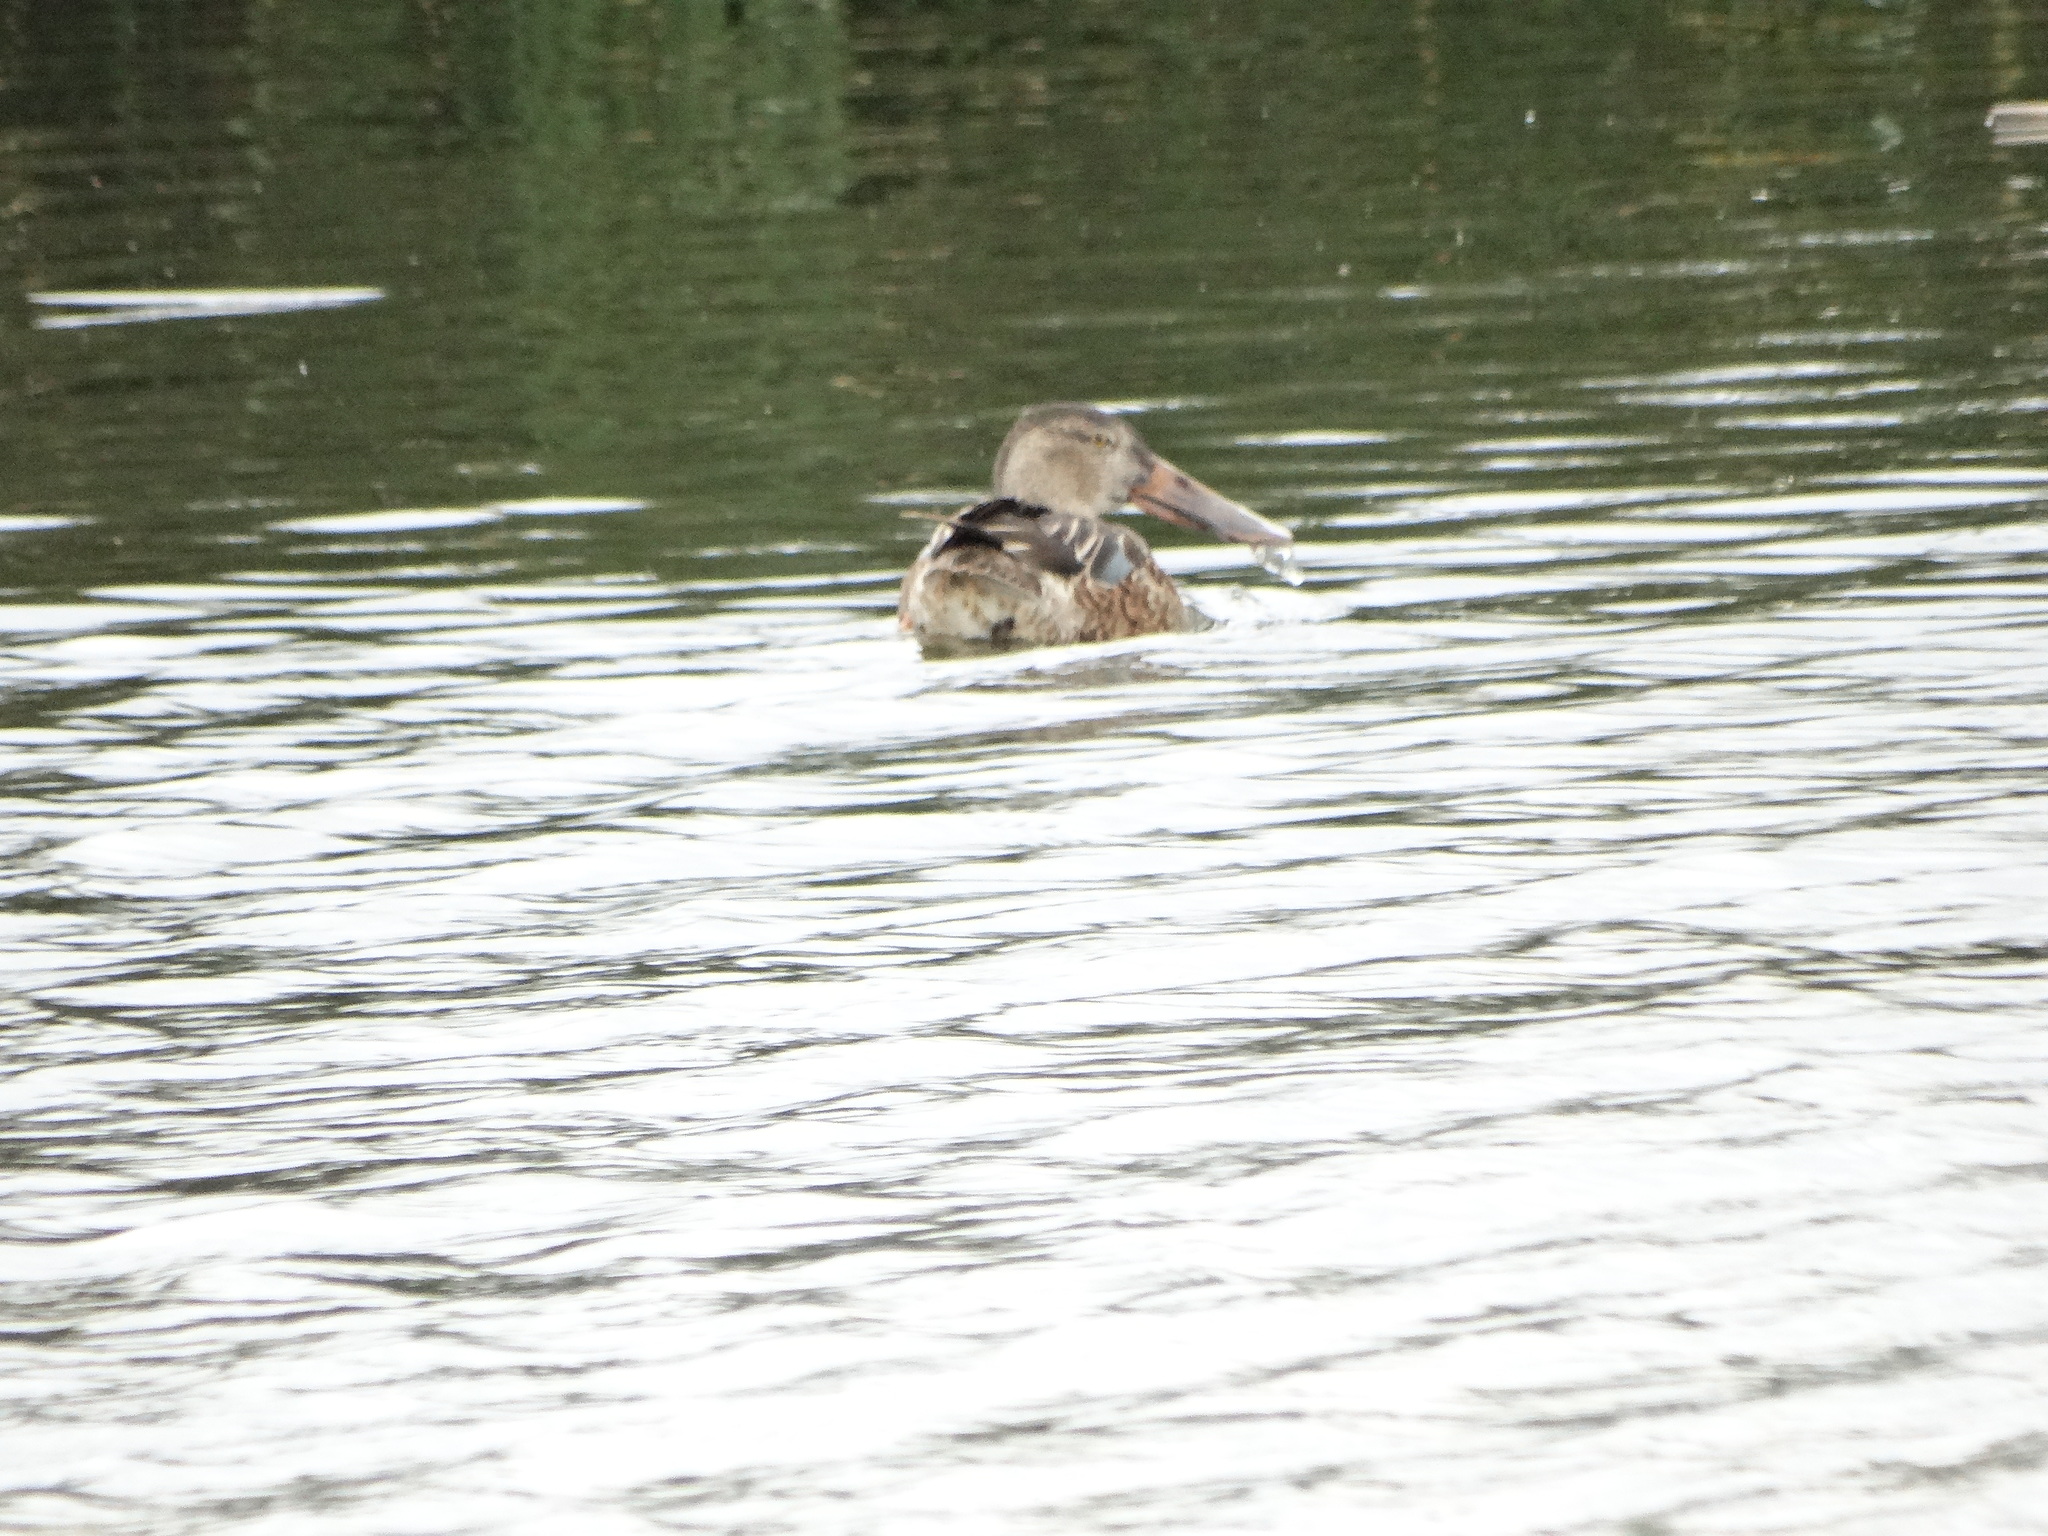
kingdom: Animalia
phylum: Chordata
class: Aves
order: Anseriformes
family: Anatidae
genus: Spatula
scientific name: Spatula clypeata
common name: Northern shoveler
